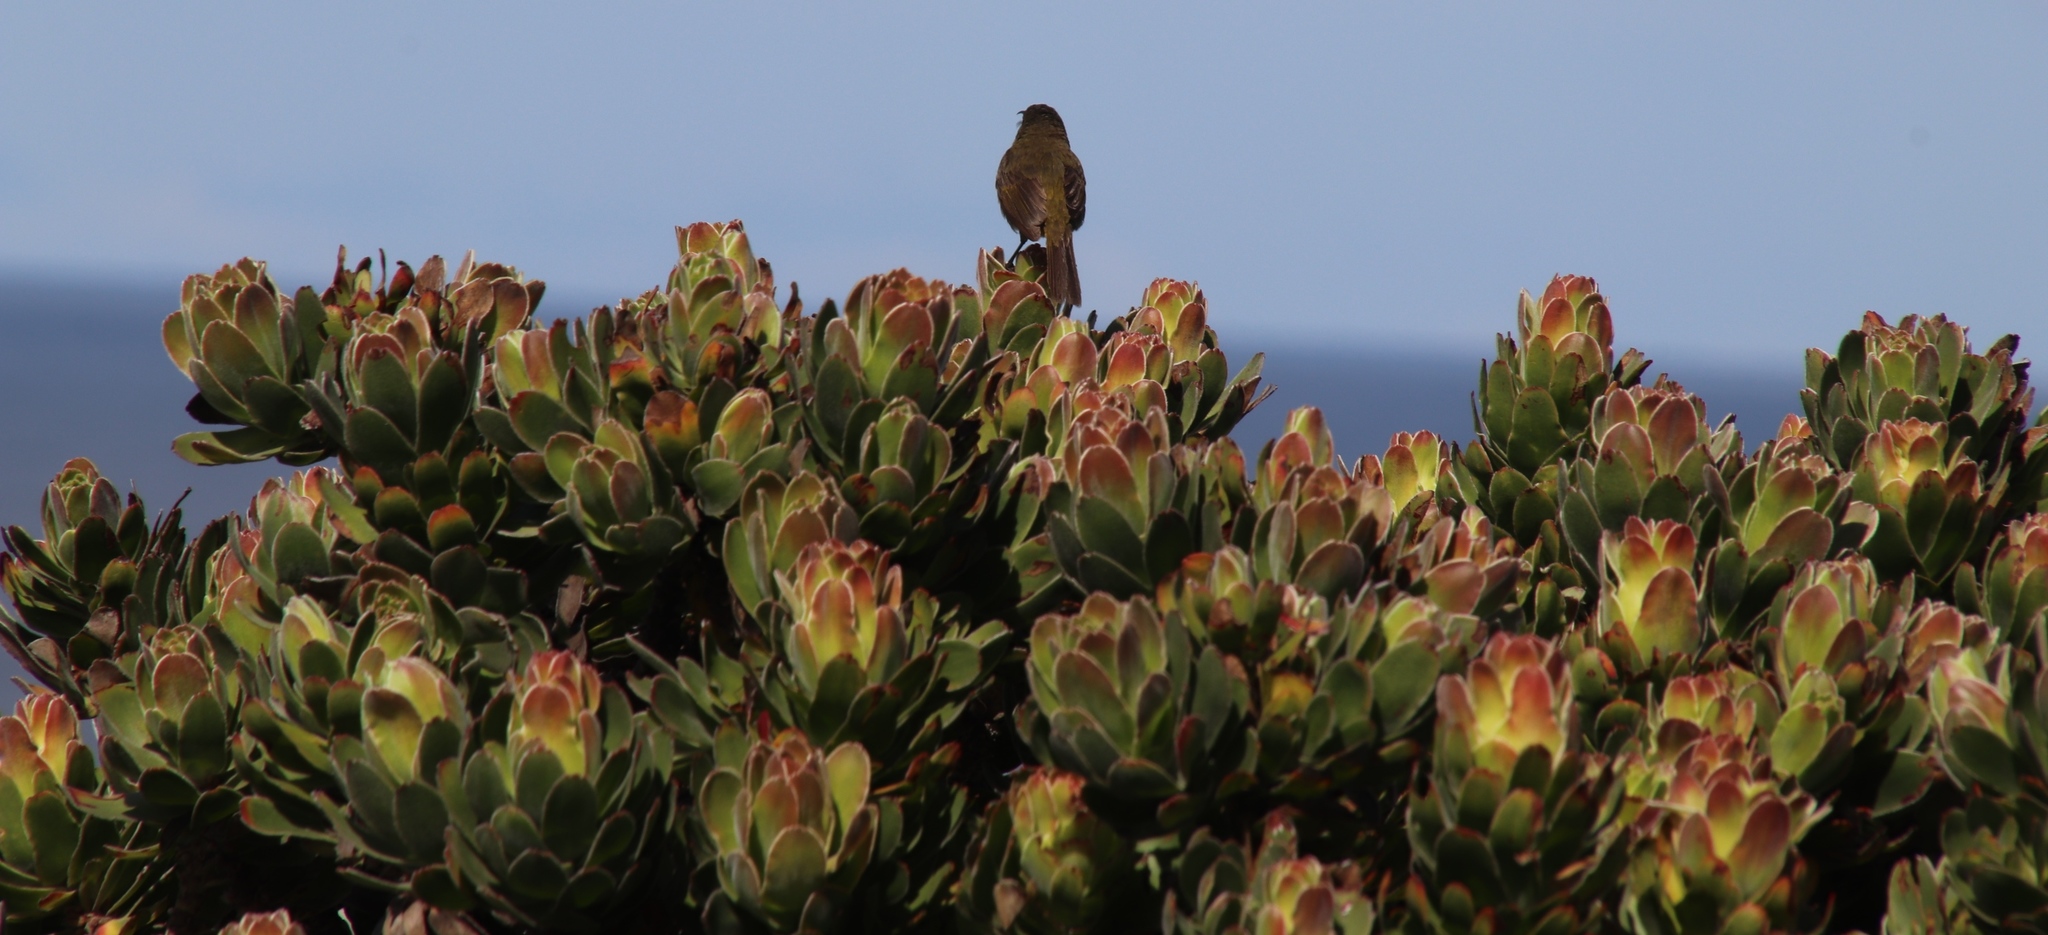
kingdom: Animalia
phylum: Chordata
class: Aves
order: Passeriformes
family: Nectariniidae
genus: Anthobaphes
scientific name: Anthobaphes violacea
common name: Orange-breasted sunbird
